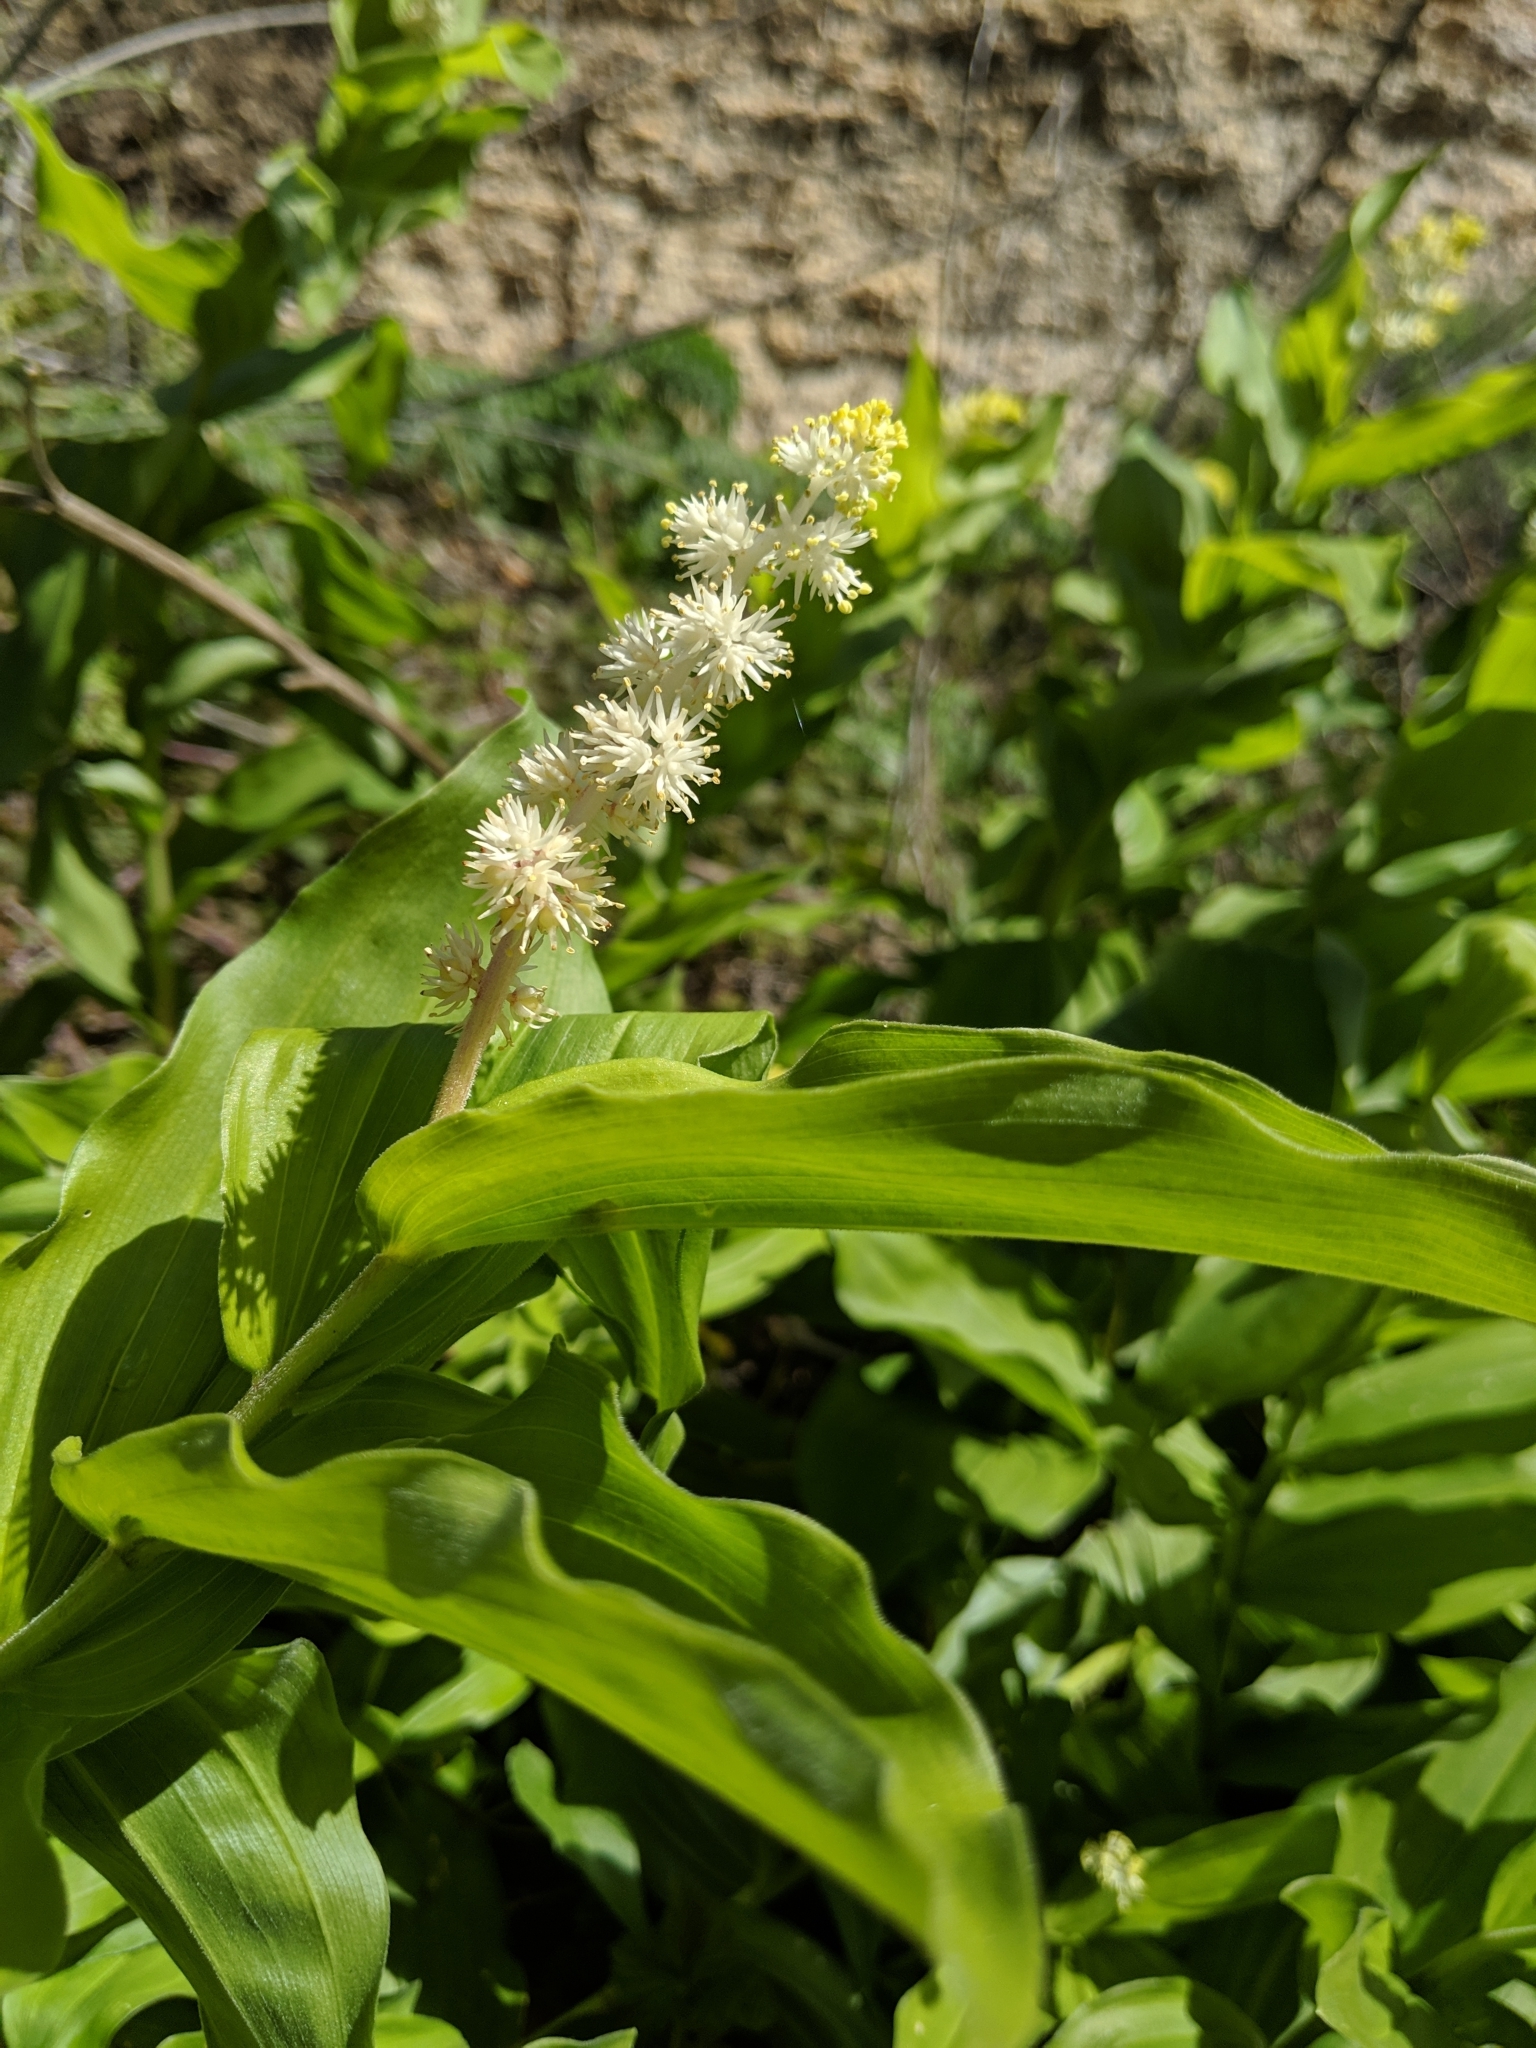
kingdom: Plantae
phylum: Tracheophyta
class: Liliopsida
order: Asparagales
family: Asparagaceae
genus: Maianthemum
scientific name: Maianthemum racemosum
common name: False spikenard
